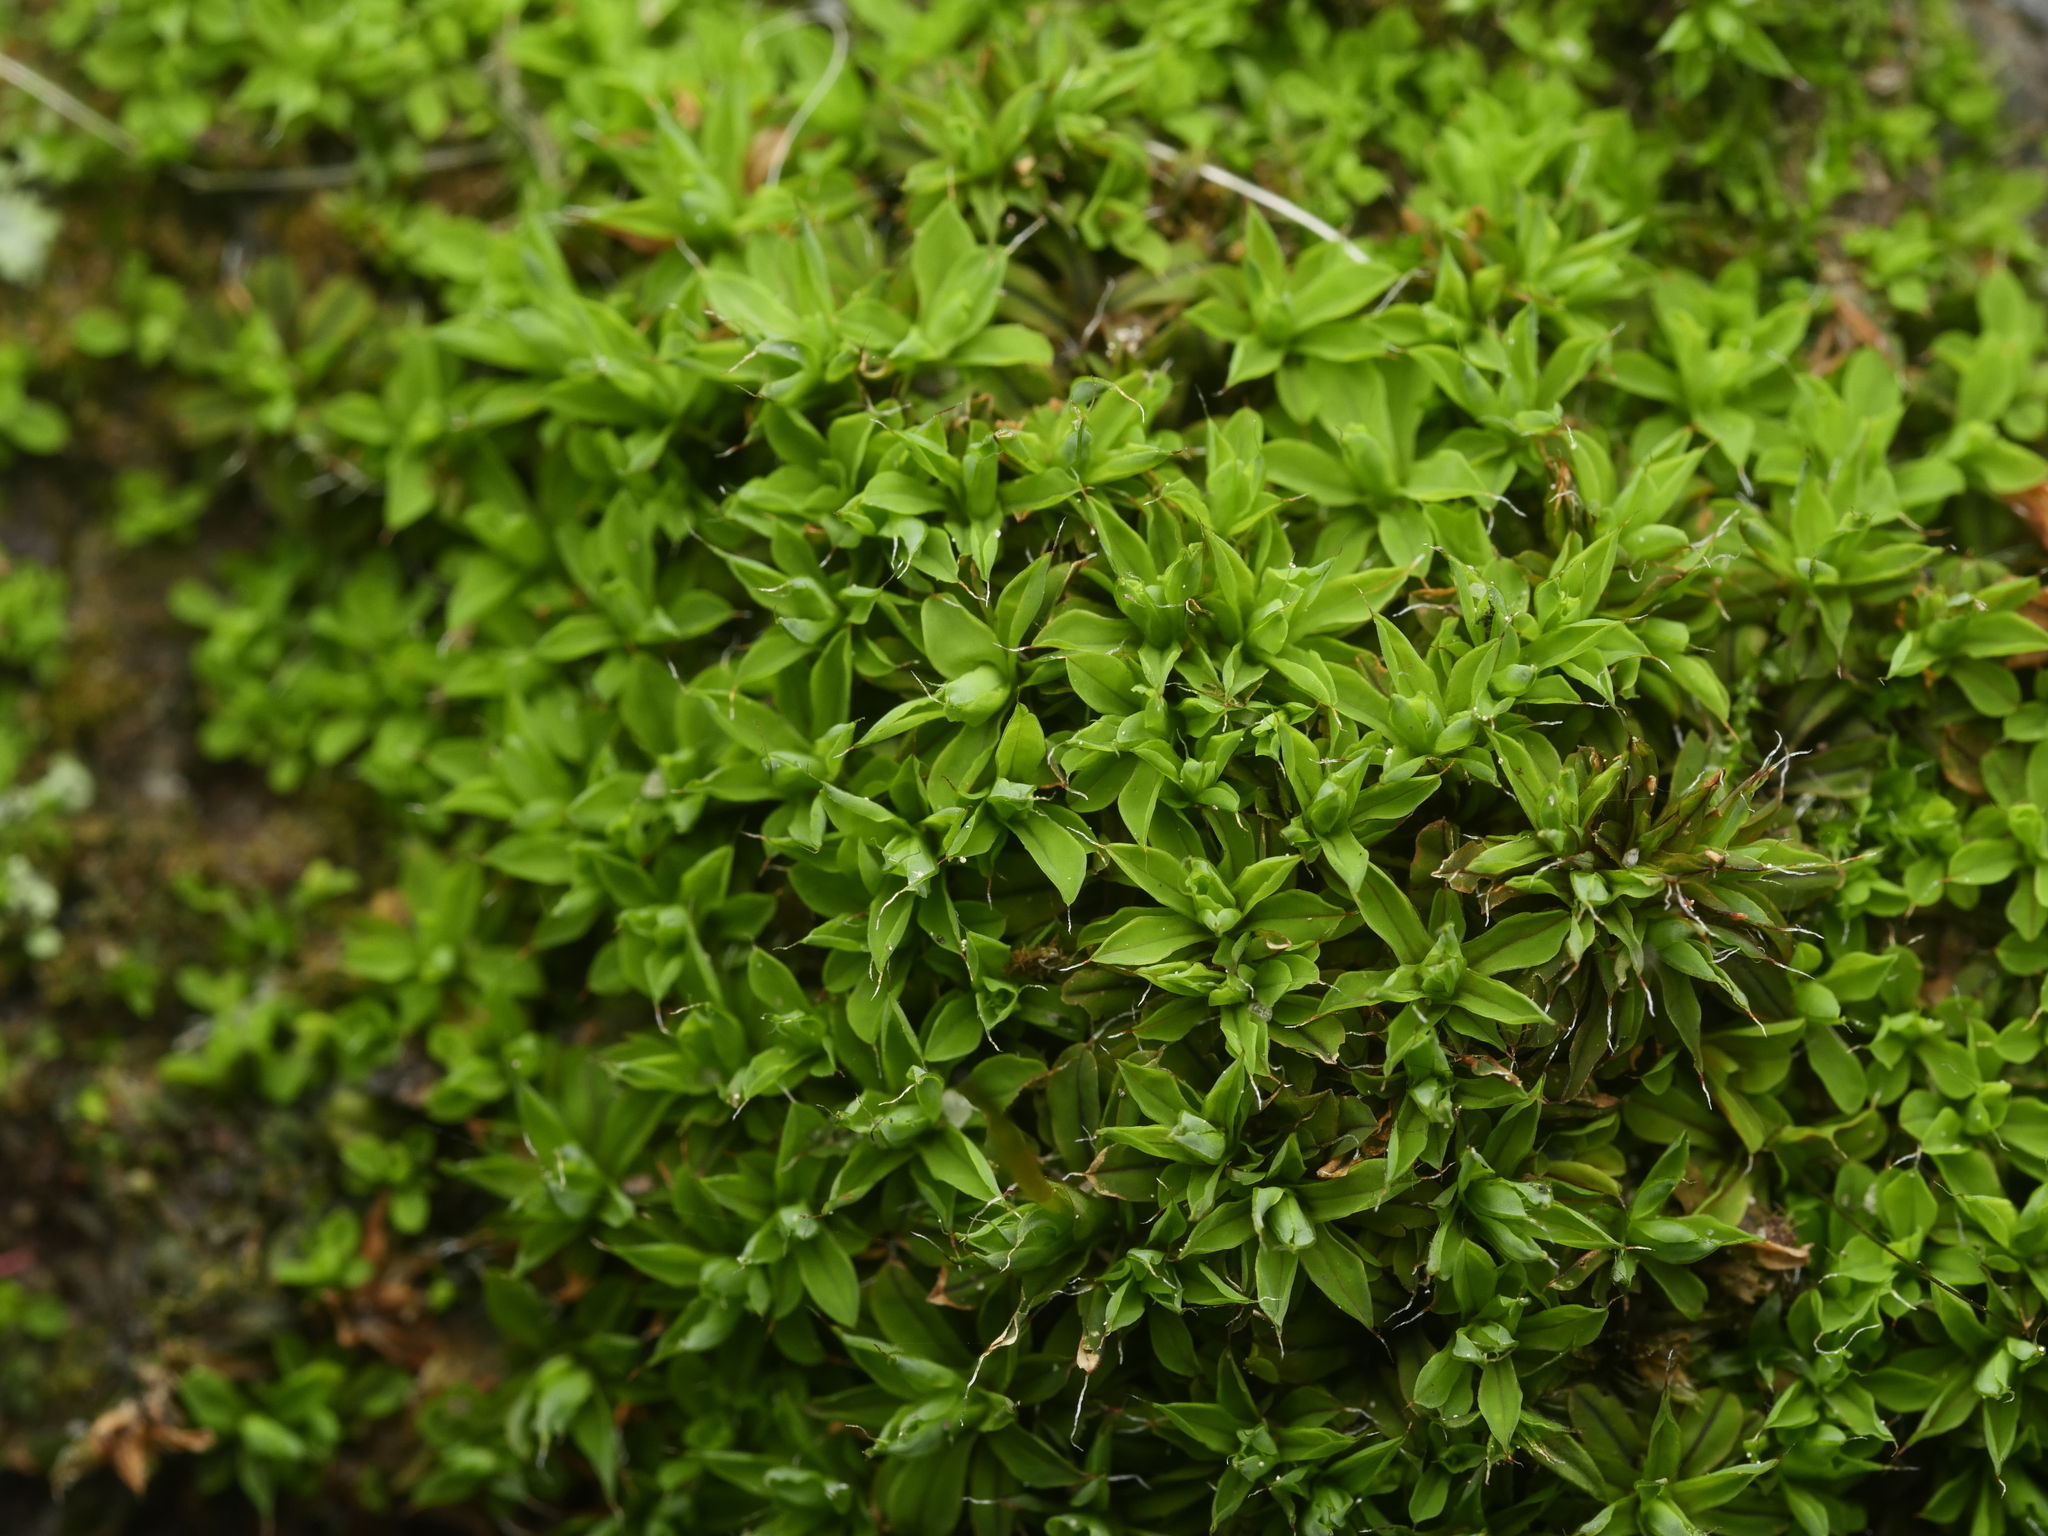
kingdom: Plantae
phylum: Bryophyta
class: Bryopsida
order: Pottiales
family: Pottiaceae
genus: Tortula
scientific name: Tortula muralis
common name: Wall screw-moss
